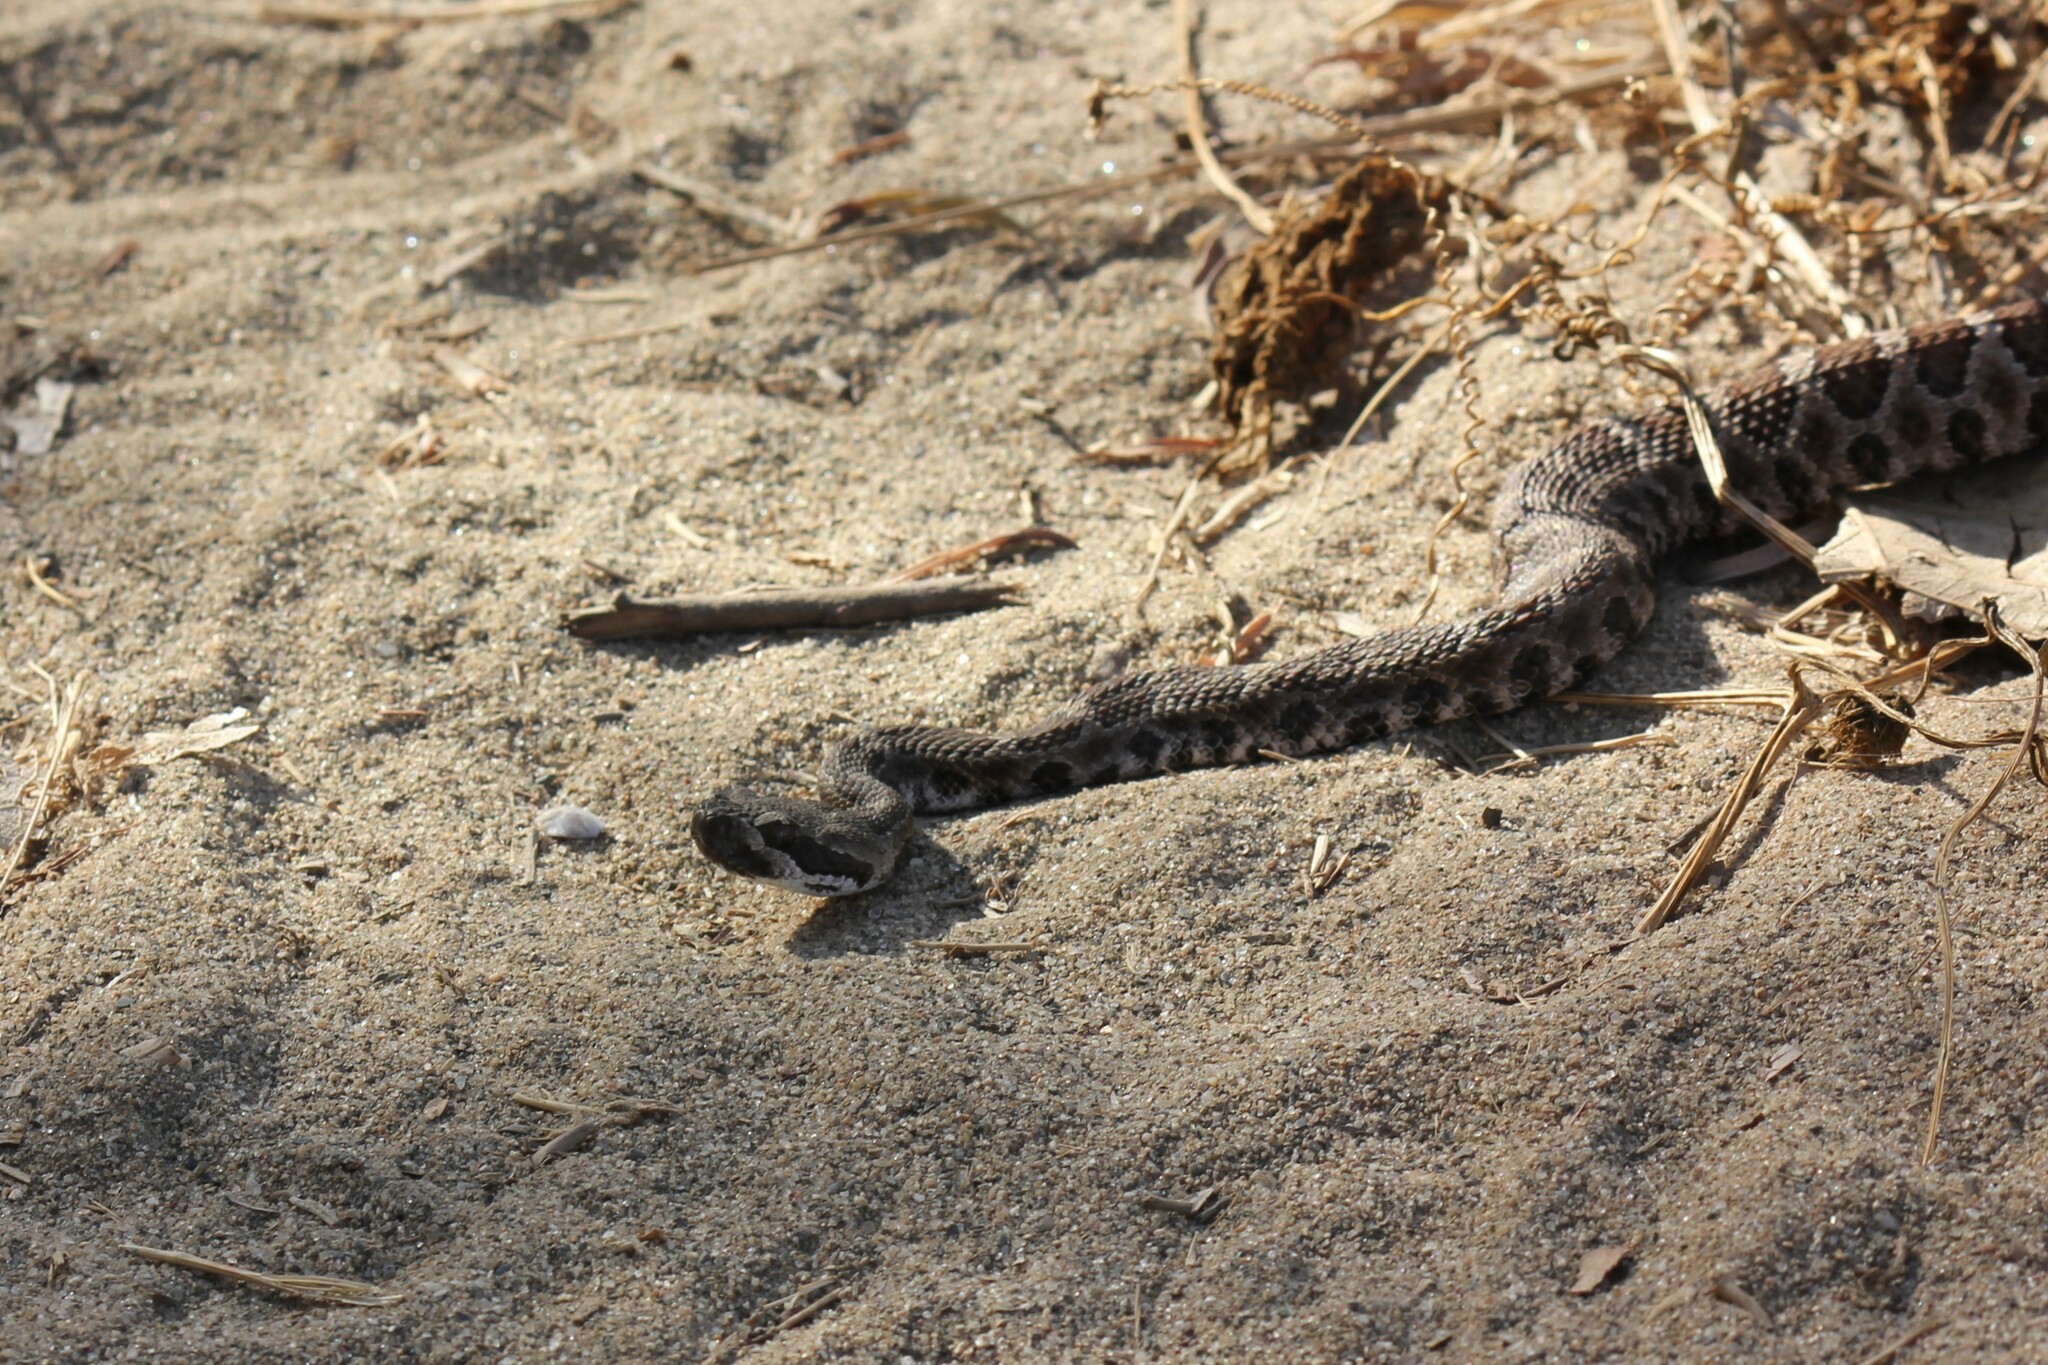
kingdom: Animalia
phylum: Chordata
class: Squamata
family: Viperidae
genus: Crotalus
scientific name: Crotalus oreganus
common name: Abyssus
